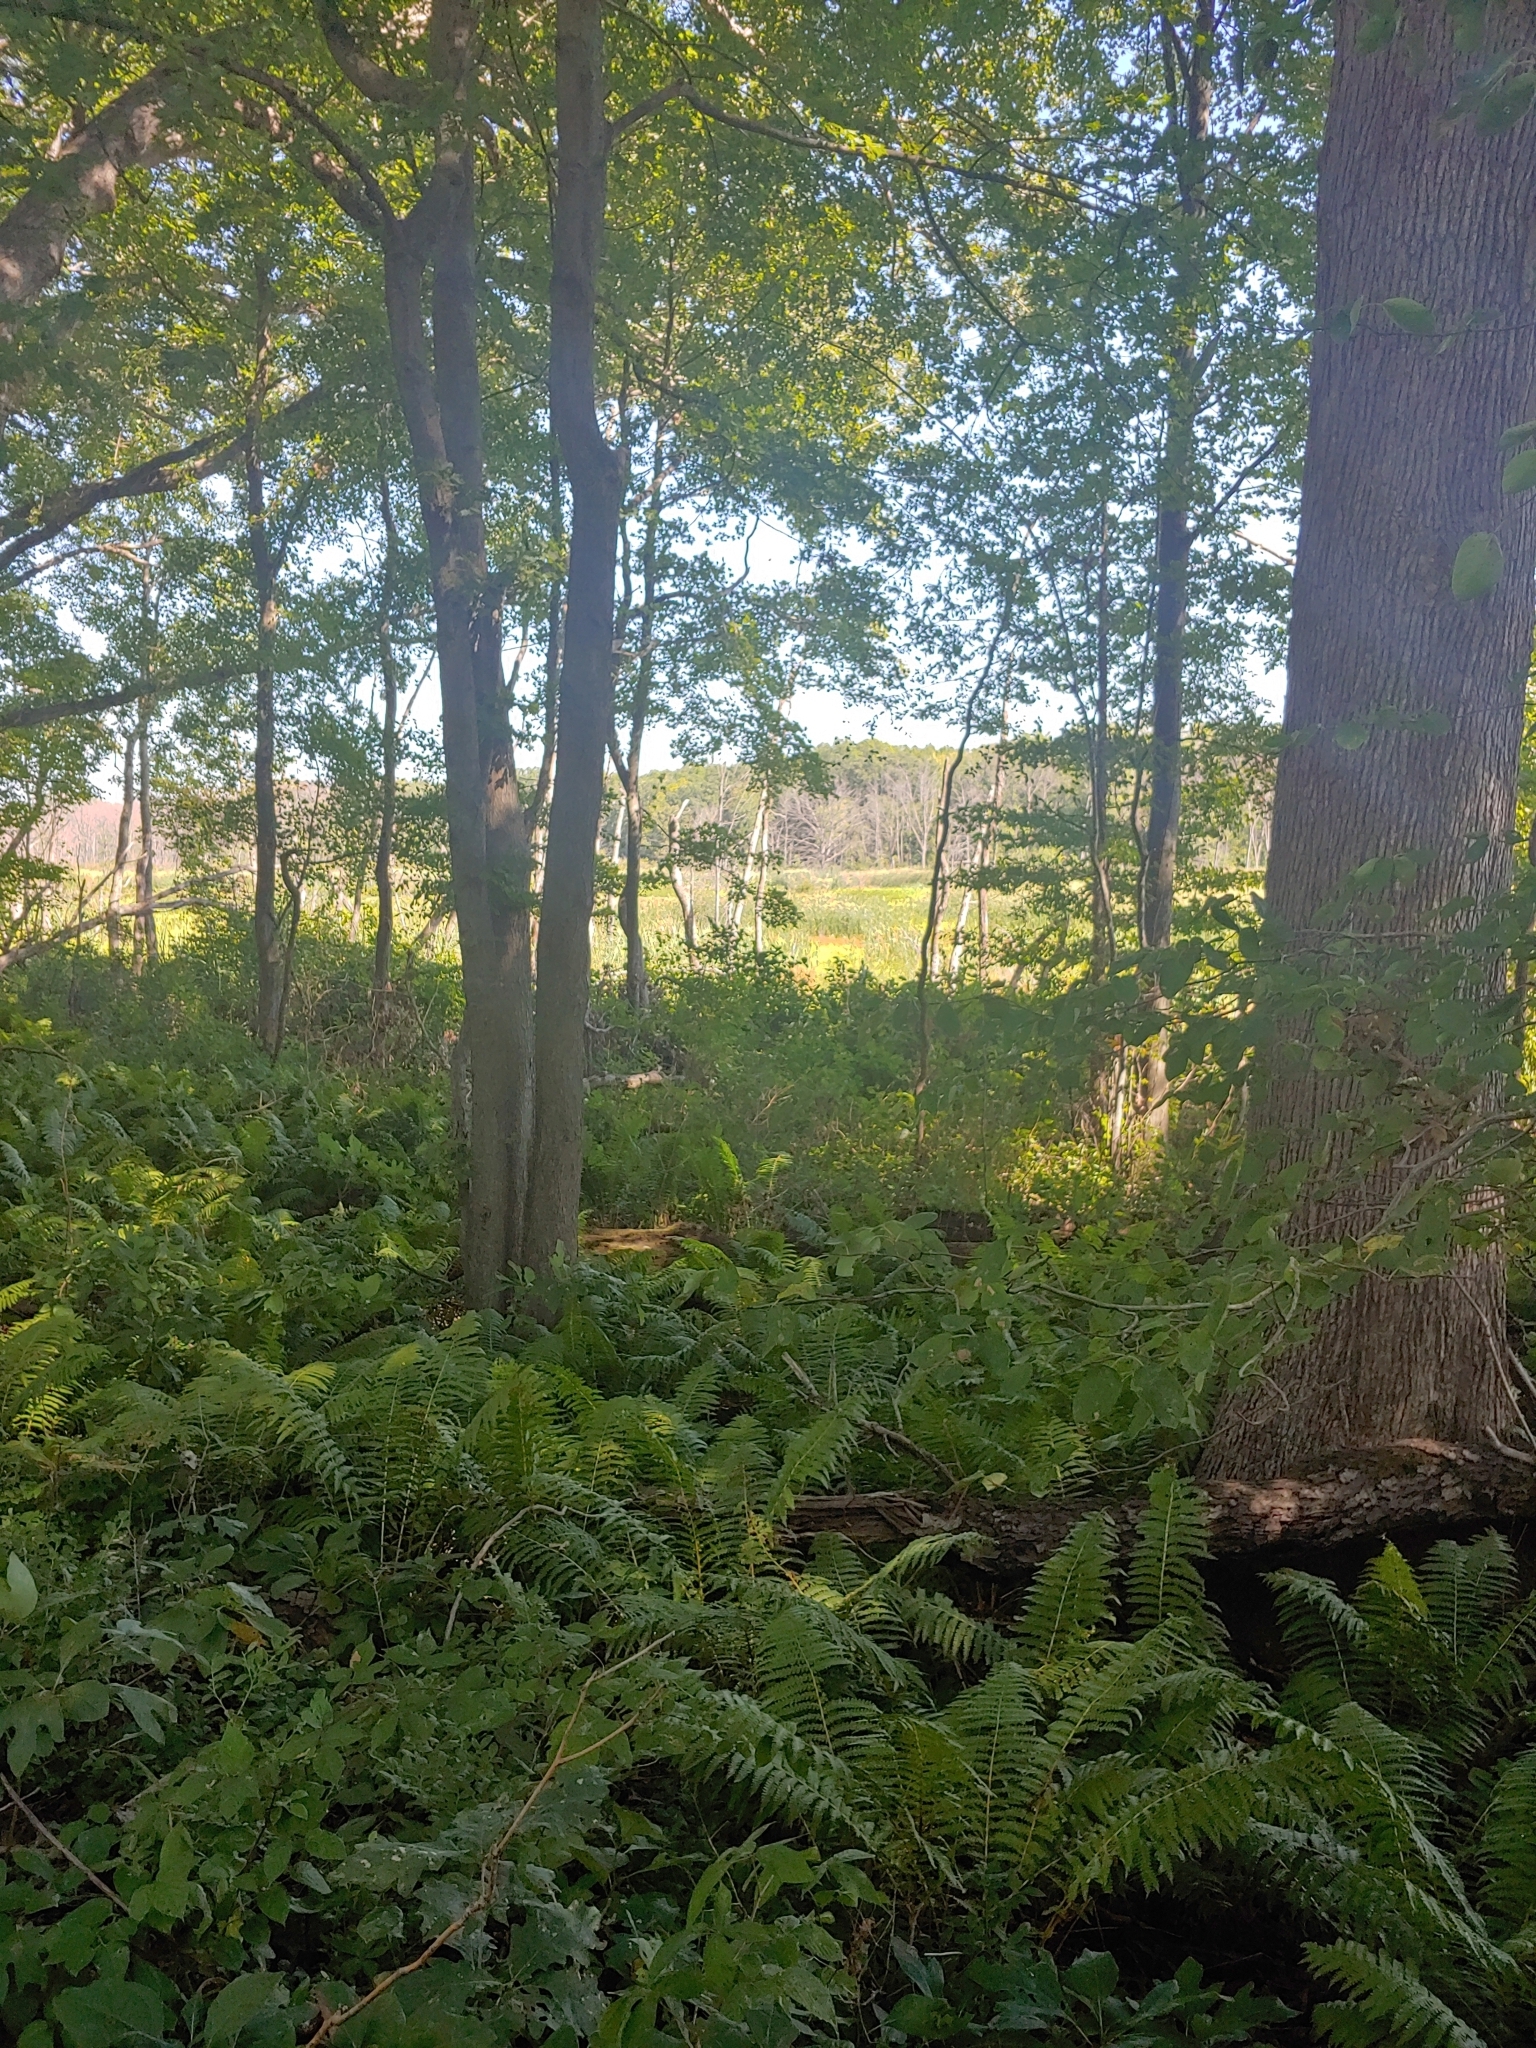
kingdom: Animalia
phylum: Chordata
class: Aves
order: Gruiformes
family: Gruidae
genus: Grus
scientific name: Grus canadensis
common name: Sandhill crane
